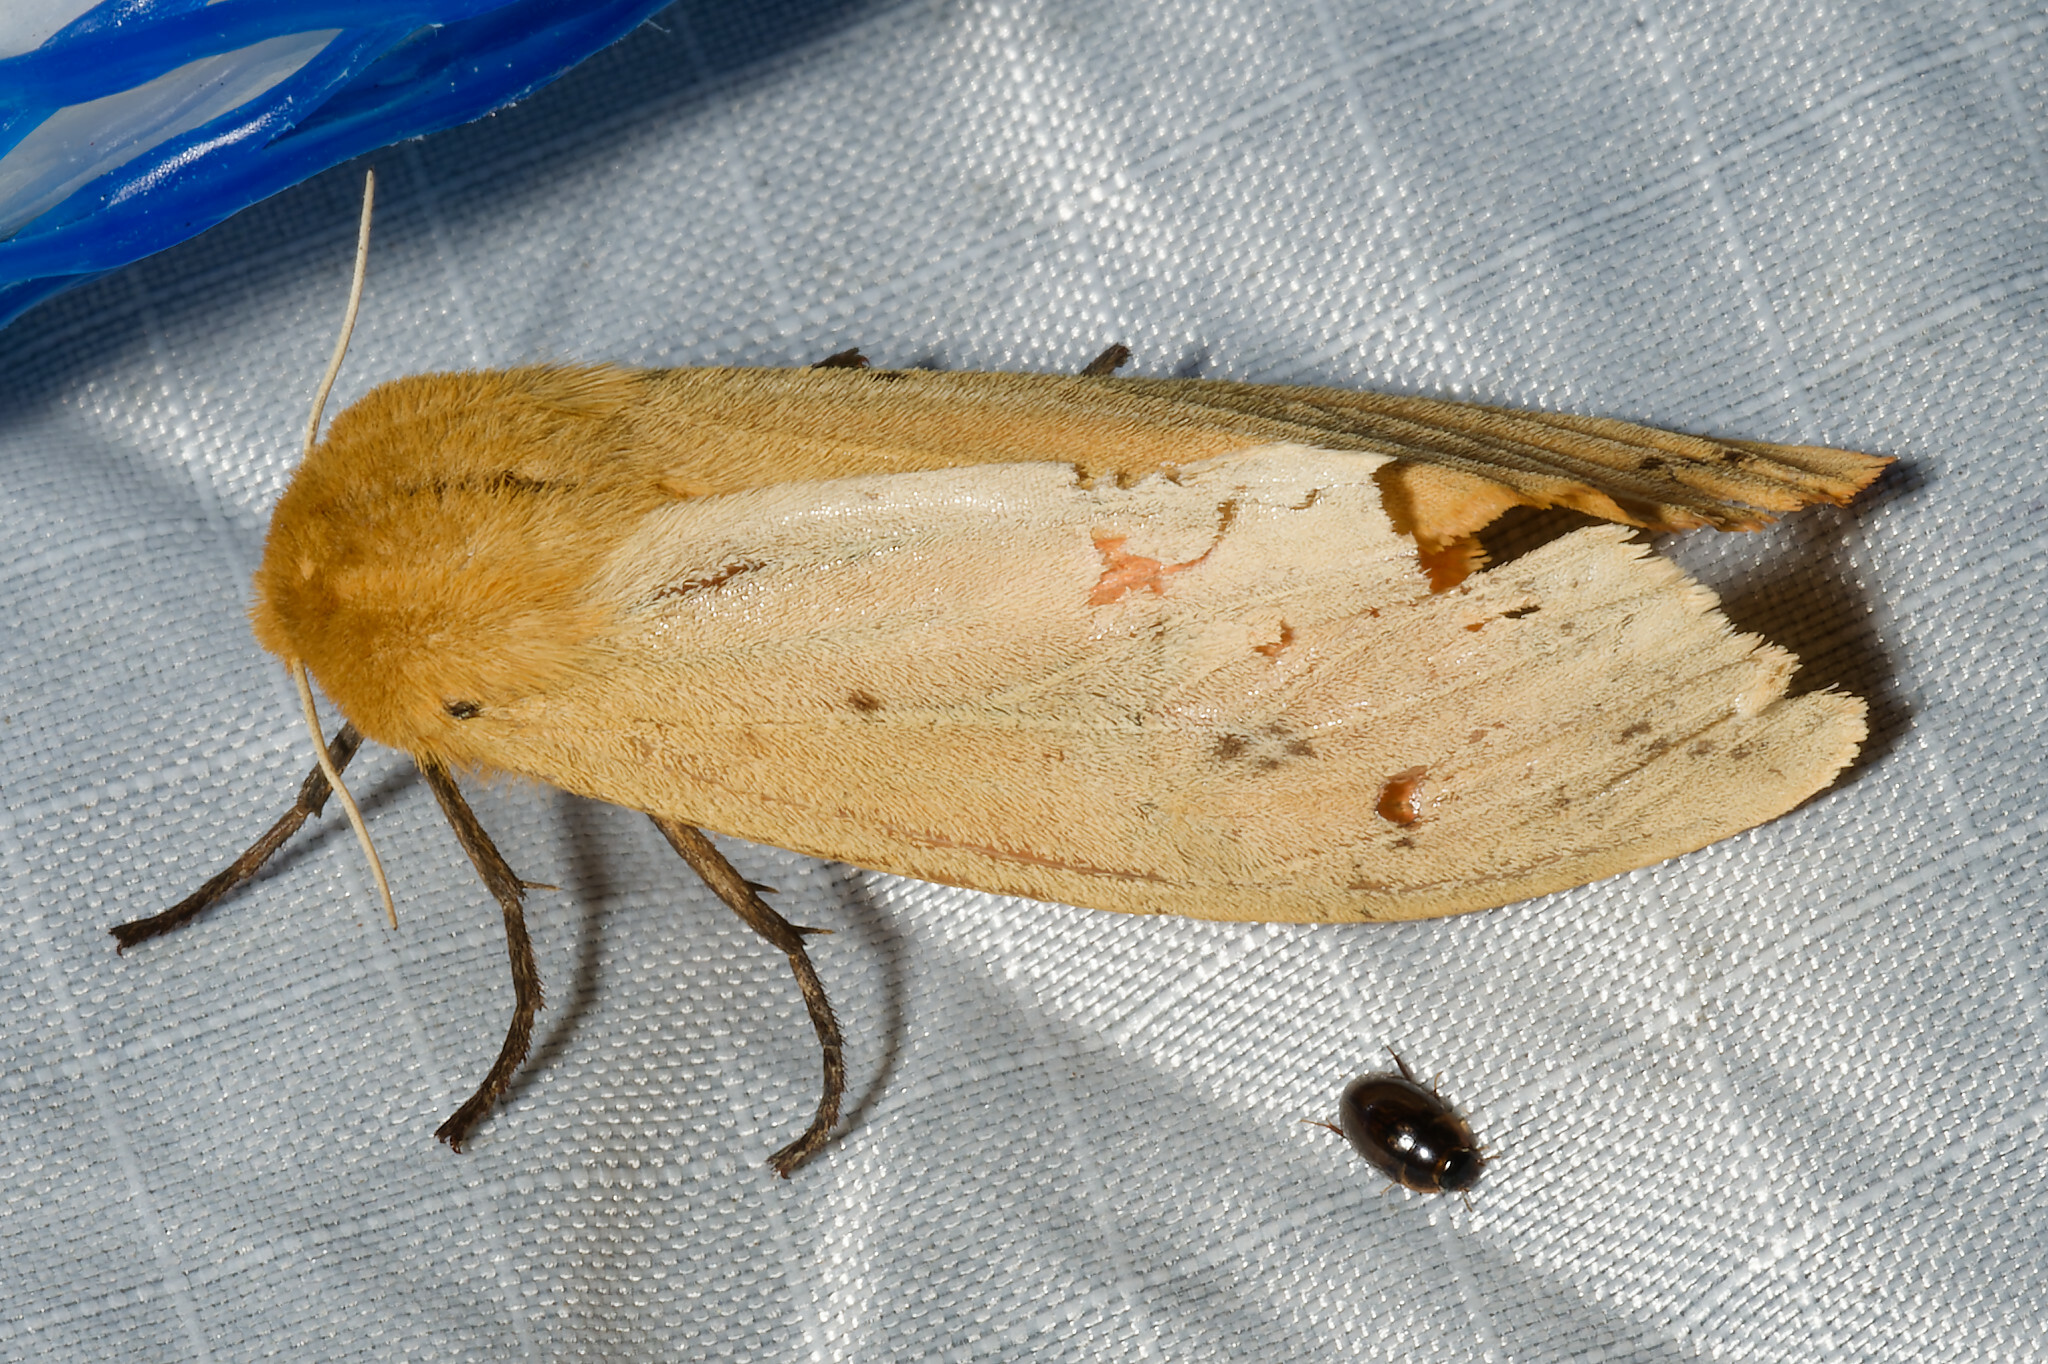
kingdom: Animalia
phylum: Arthropoda
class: Insecta
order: Lepidoptera
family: Erebidae
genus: Pyrrharctia
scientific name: Pyrrharctia isabella
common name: Isabella tiger moth
